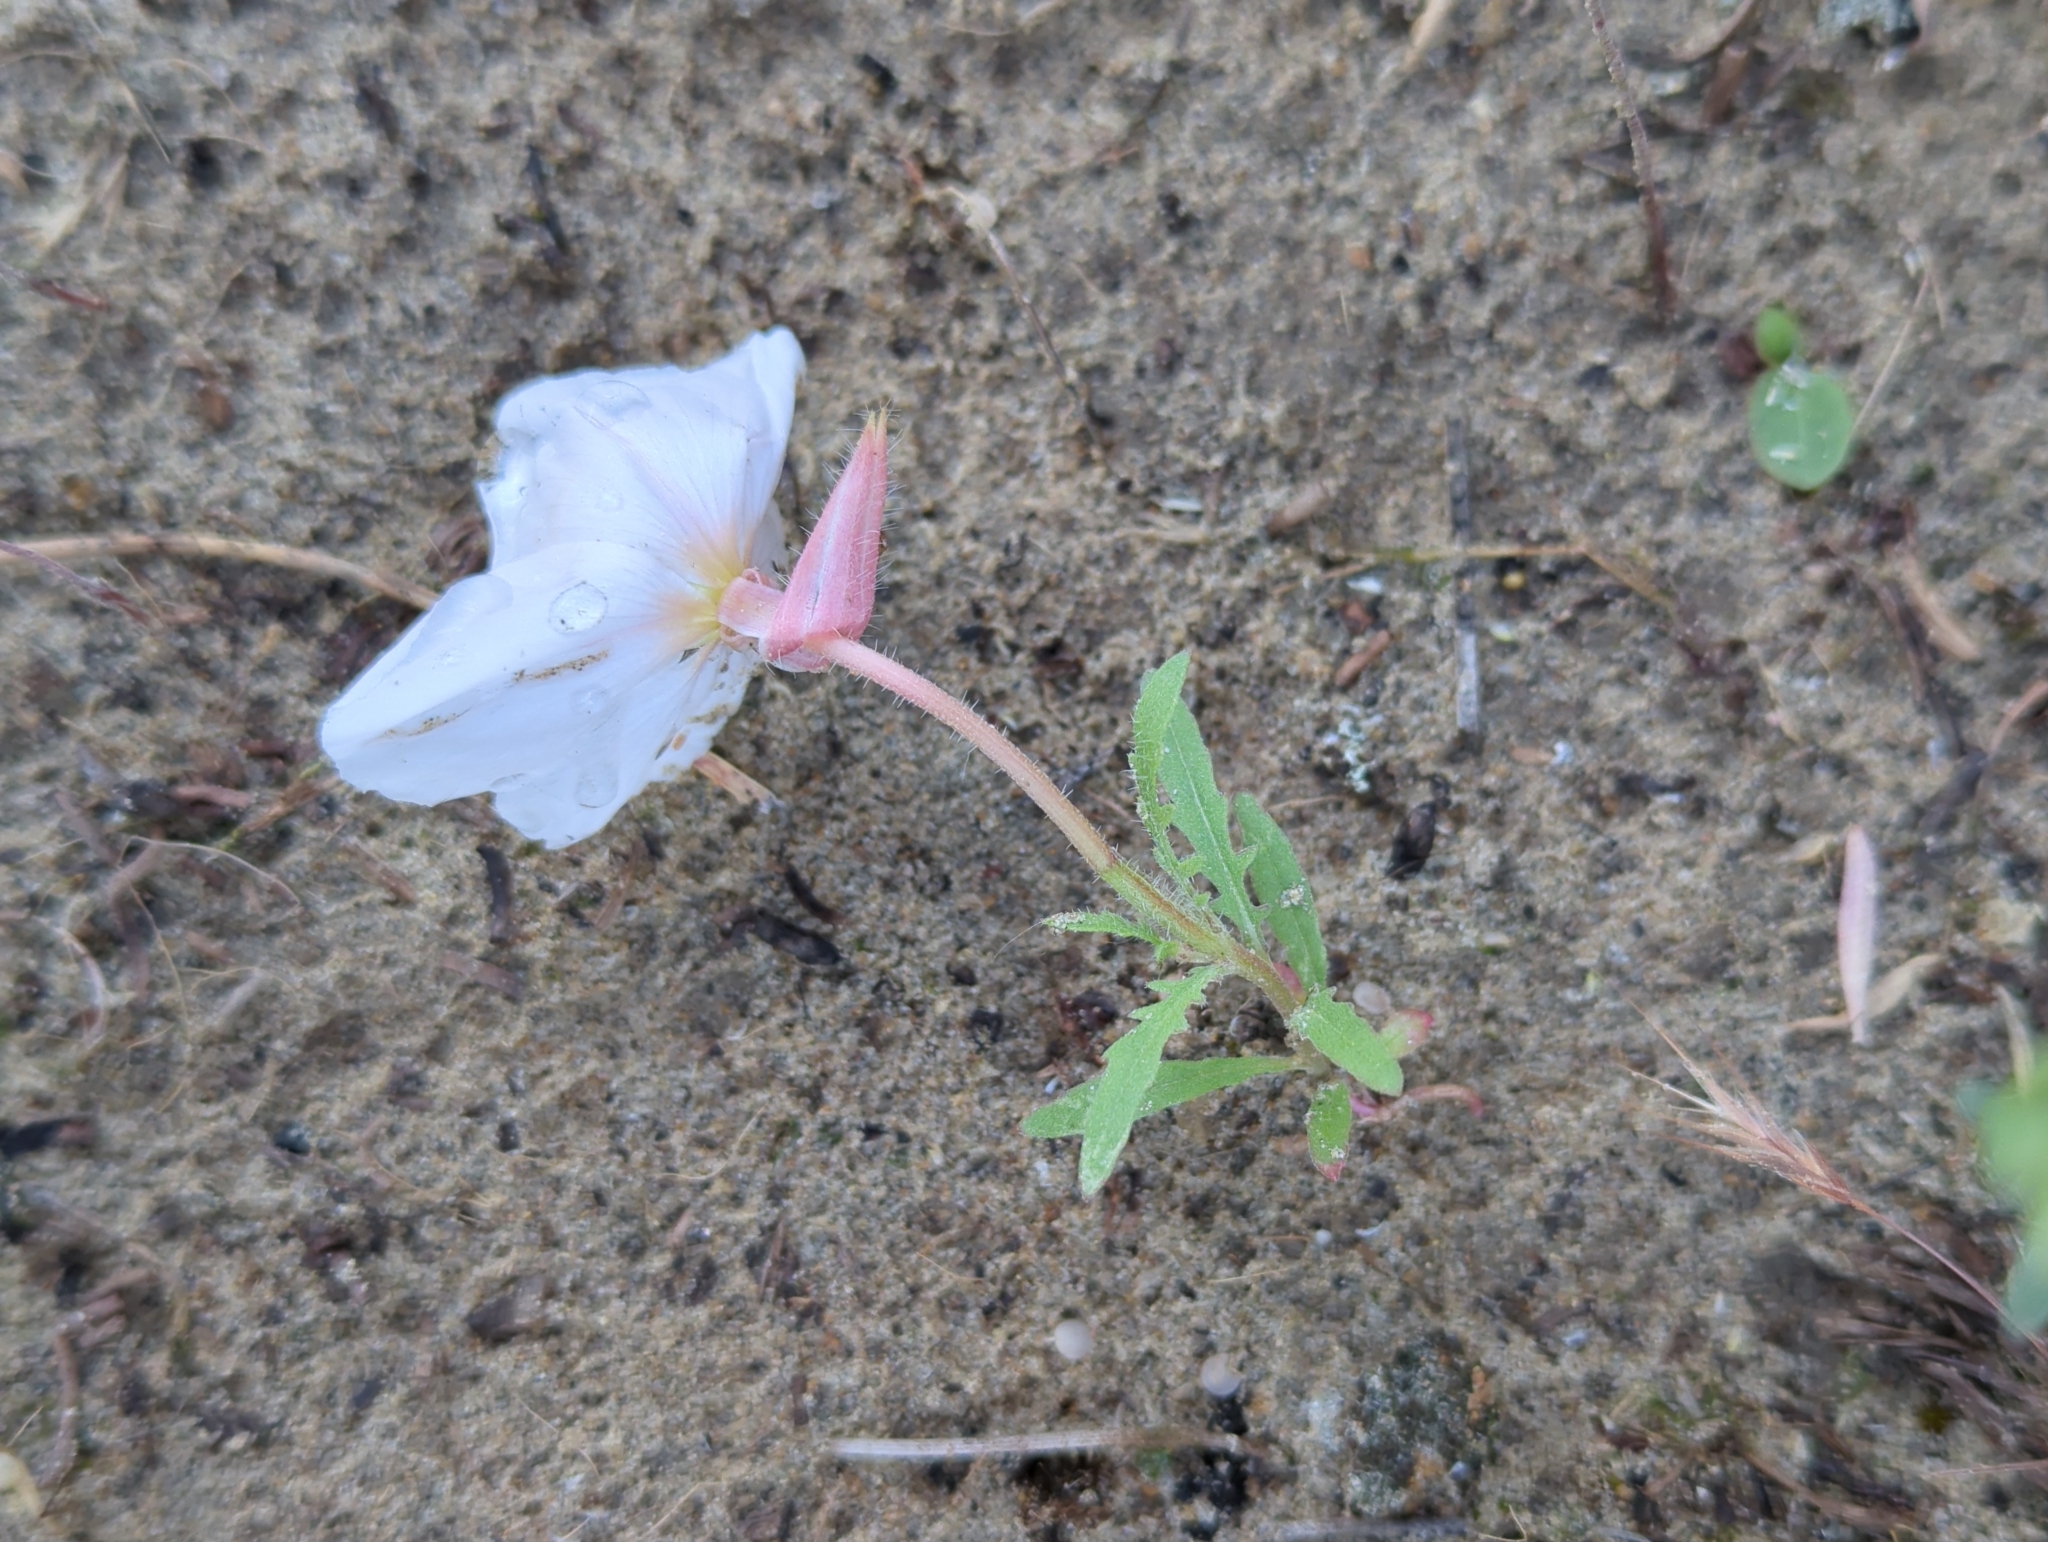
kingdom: Plantae
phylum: Tracheophyta
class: Magnoliopsida
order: Myrtales
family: Onagraceae
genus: Oenothera
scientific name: Oenothera albicaulis
